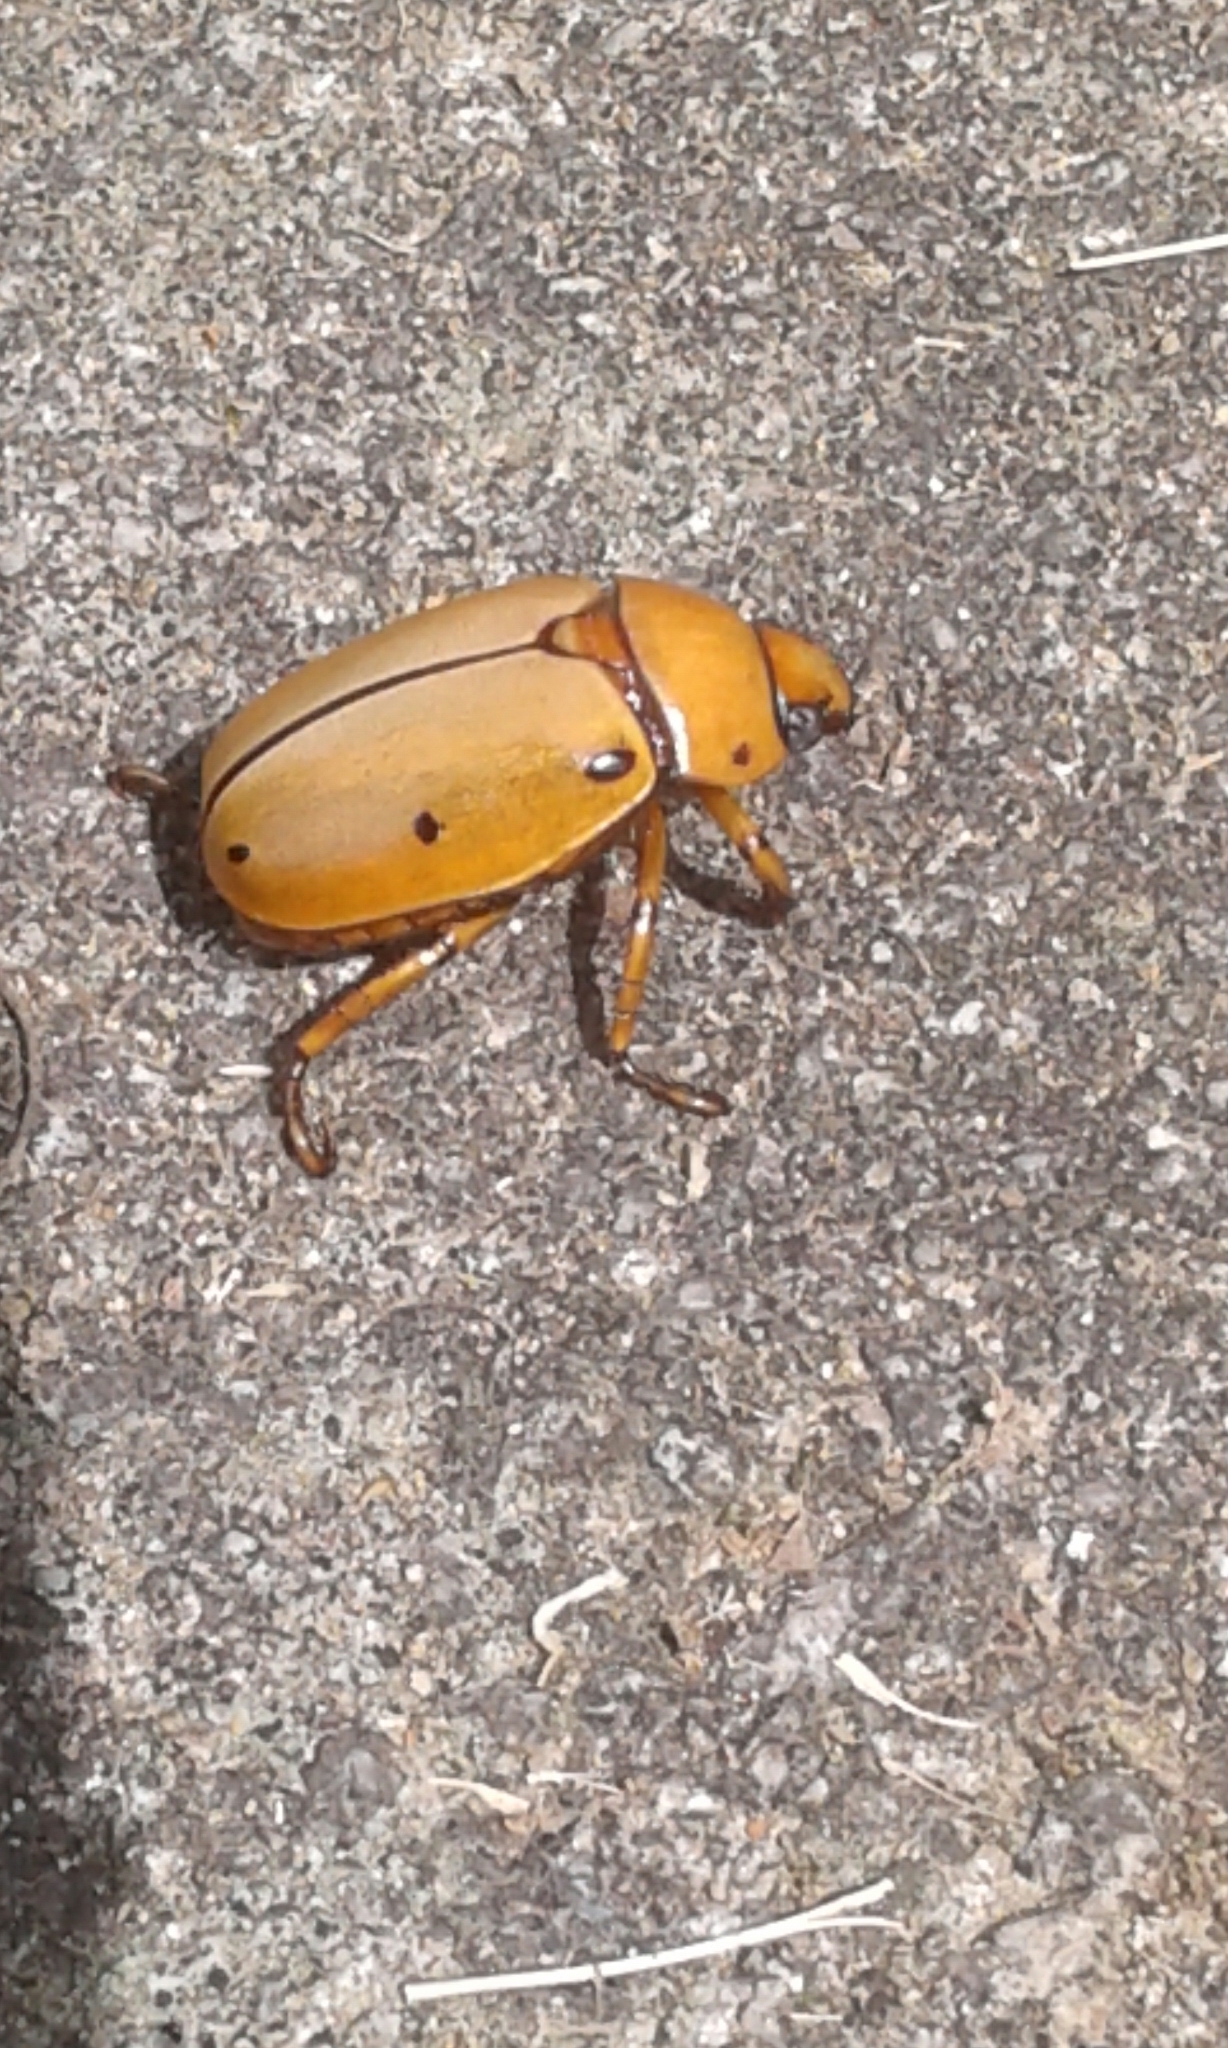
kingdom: Animalia
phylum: Arthropoda
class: Insecta
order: Coleoptera
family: Scarabaeidae
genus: Pelidnota
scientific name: Pelidnota punctata
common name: Grapevine beetle
